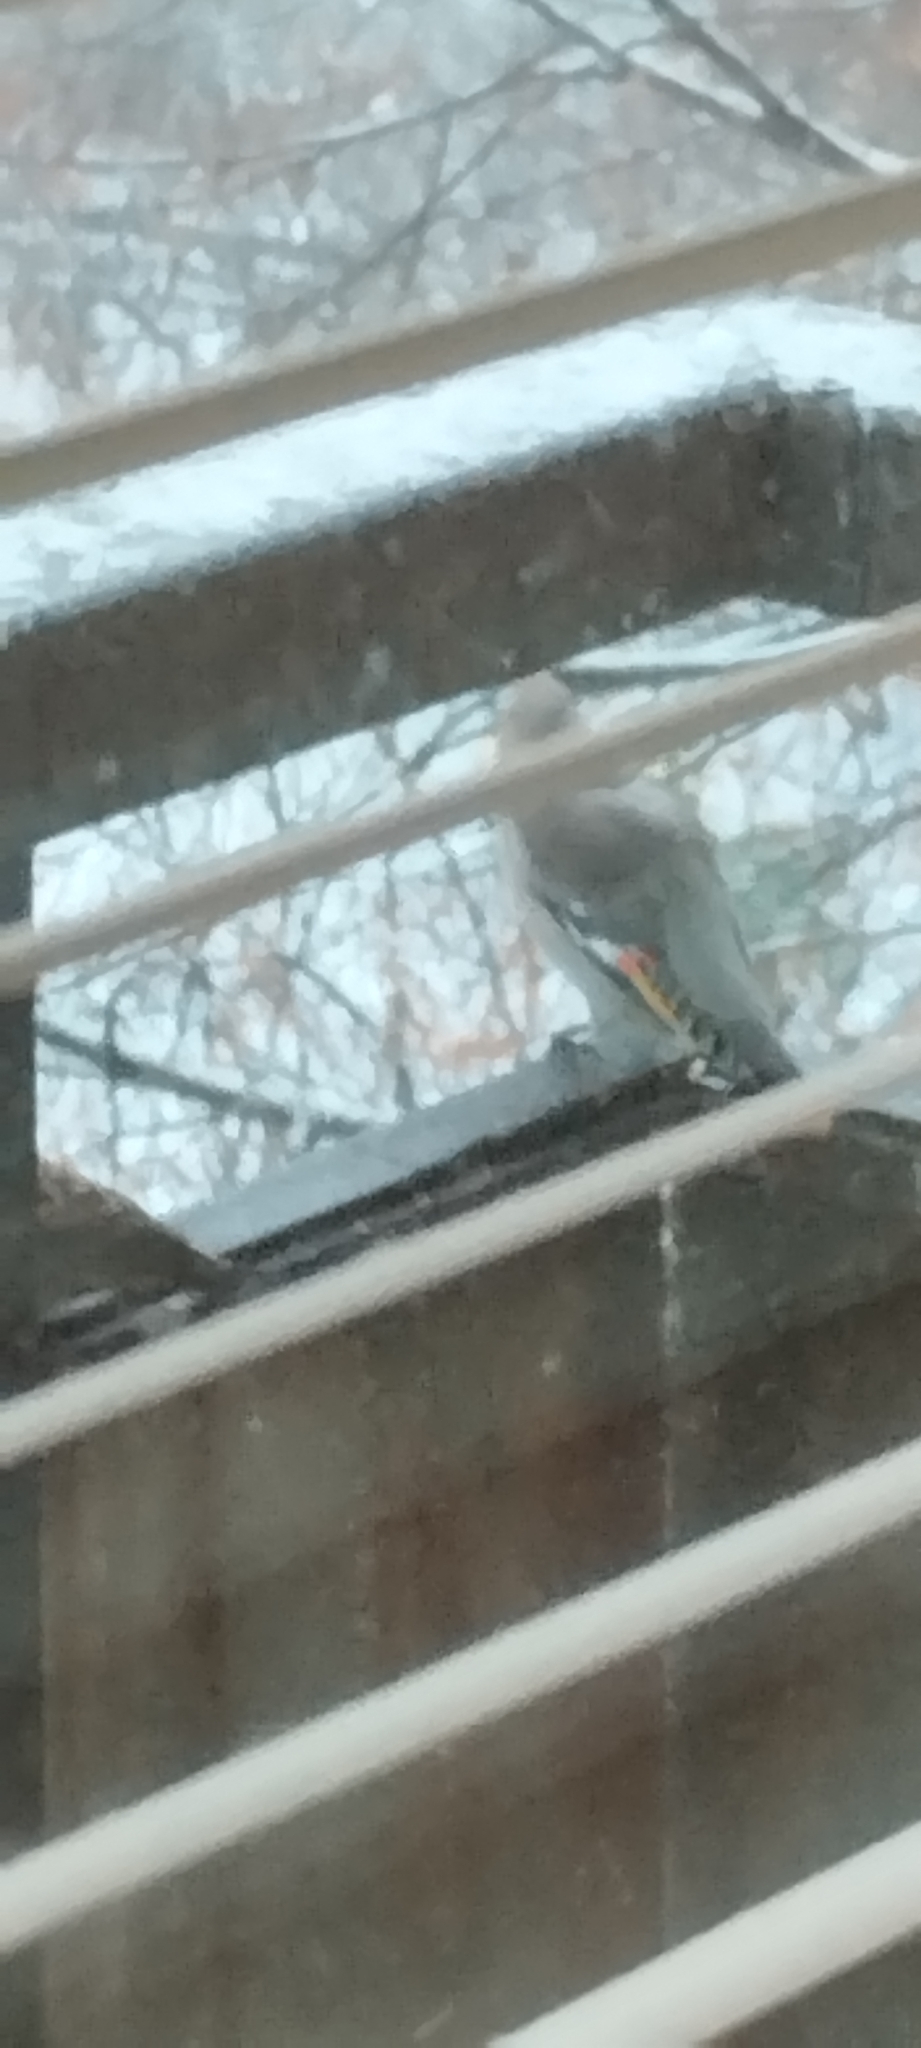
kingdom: Animalia
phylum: Chordata
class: Aves
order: Passeriformes
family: Bombycillidae
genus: Bombycilla
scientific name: Bombycilla garrulus
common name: Bohemian waxwing
